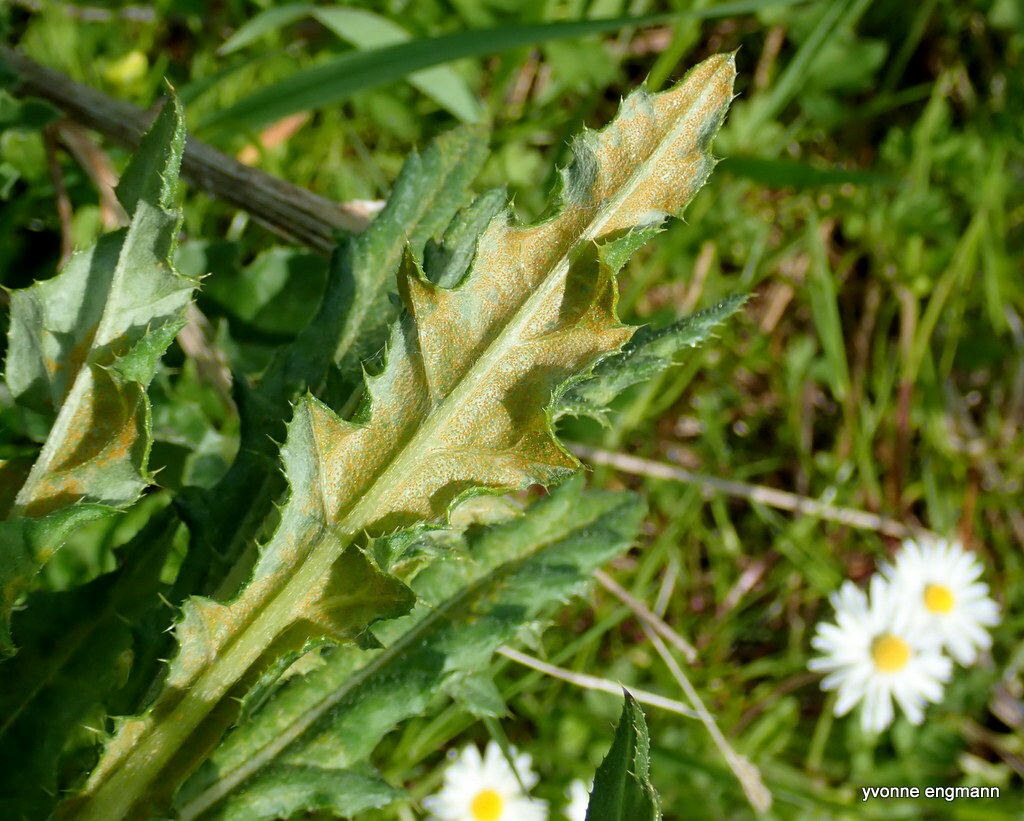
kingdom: Fungi
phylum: Basidiomycota
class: Pucciniomycetes
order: Pucciniales
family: Pucciniaceae
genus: Puccinia
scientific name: Puccinia suaveolens
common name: Thistle rust
